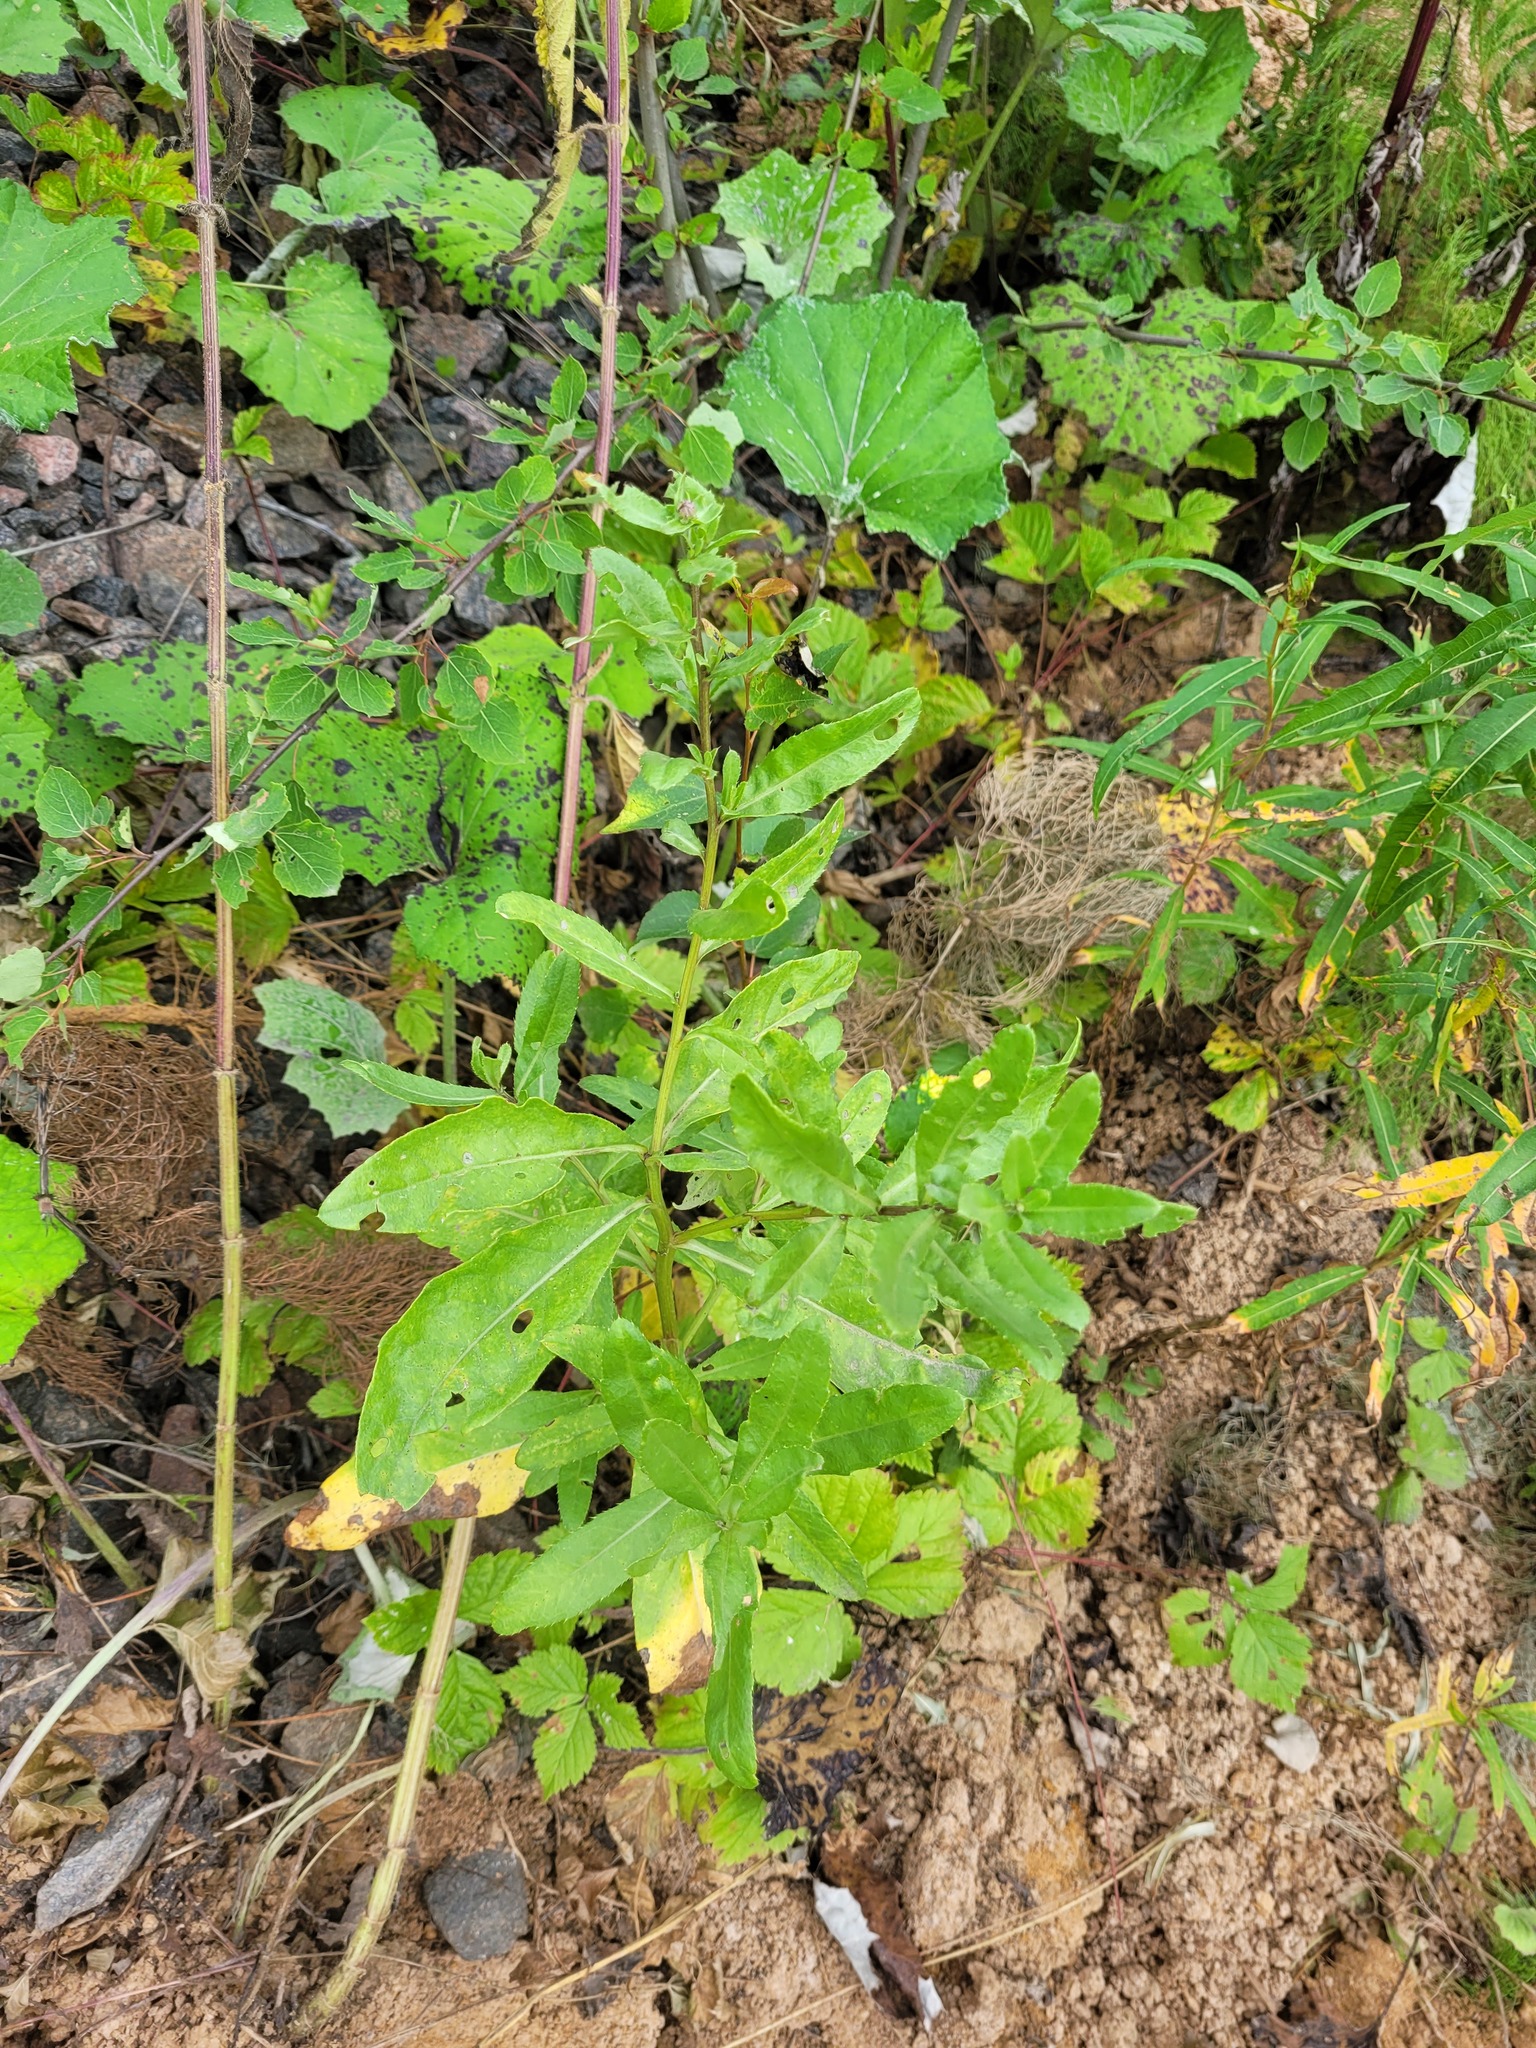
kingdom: Plantae
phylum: Tracheophyta
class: Magnoliopsida
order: Asterales
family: Asteraceae
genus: Cirsium
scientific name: Cirsium arvense
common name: Creeping thistle
